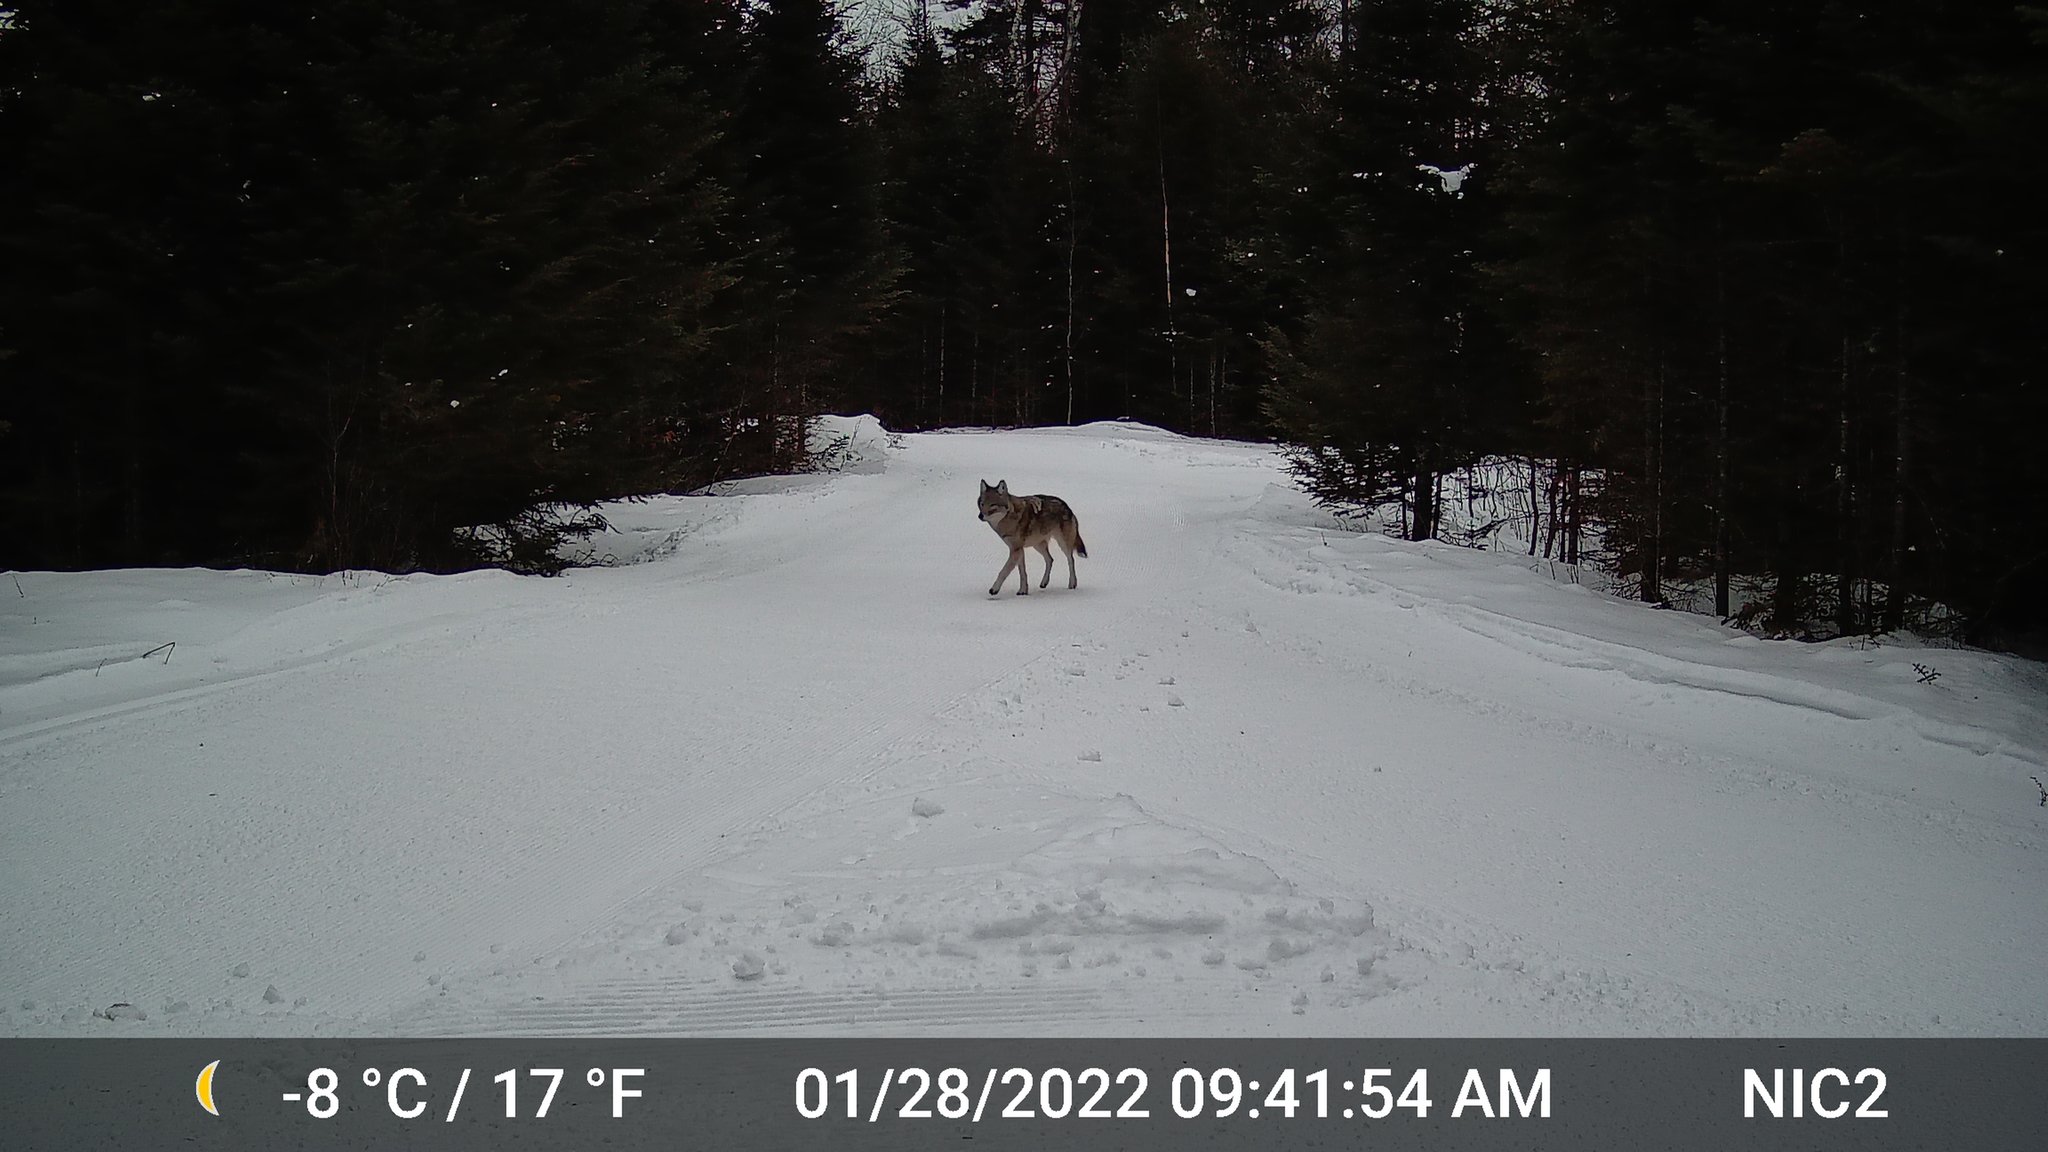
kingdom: Animalia
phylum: Chordata
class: Mammalia
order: Carnivora
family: Canidae
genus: Canis
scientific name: Canis latrans
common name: Coyote
